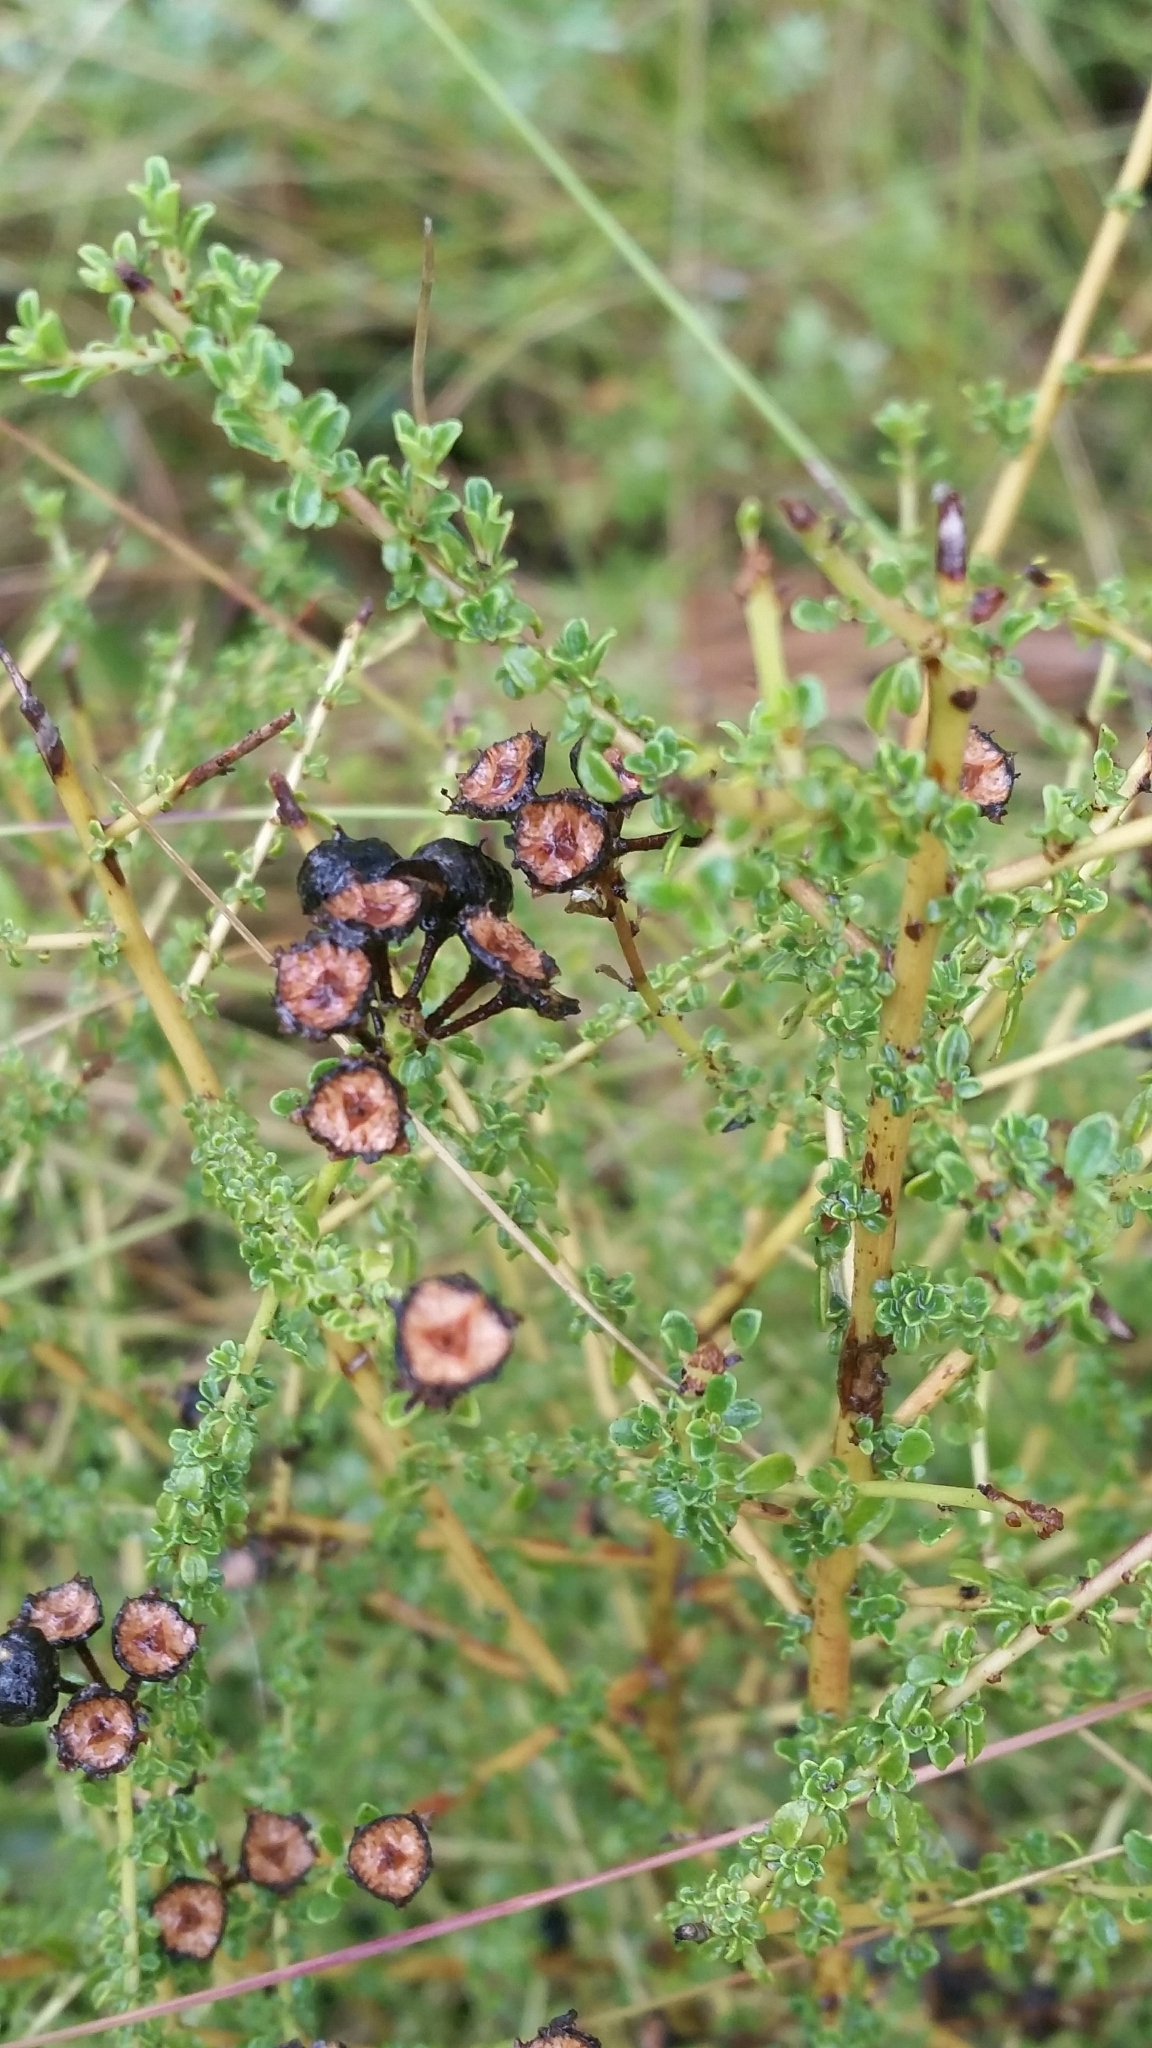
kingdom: Plantae
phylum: Tracheophyta
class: Magnoliopsida
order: Rosales
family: Rhamnaceae
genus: Ceanothus
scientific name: Ceanothus microphyllus
